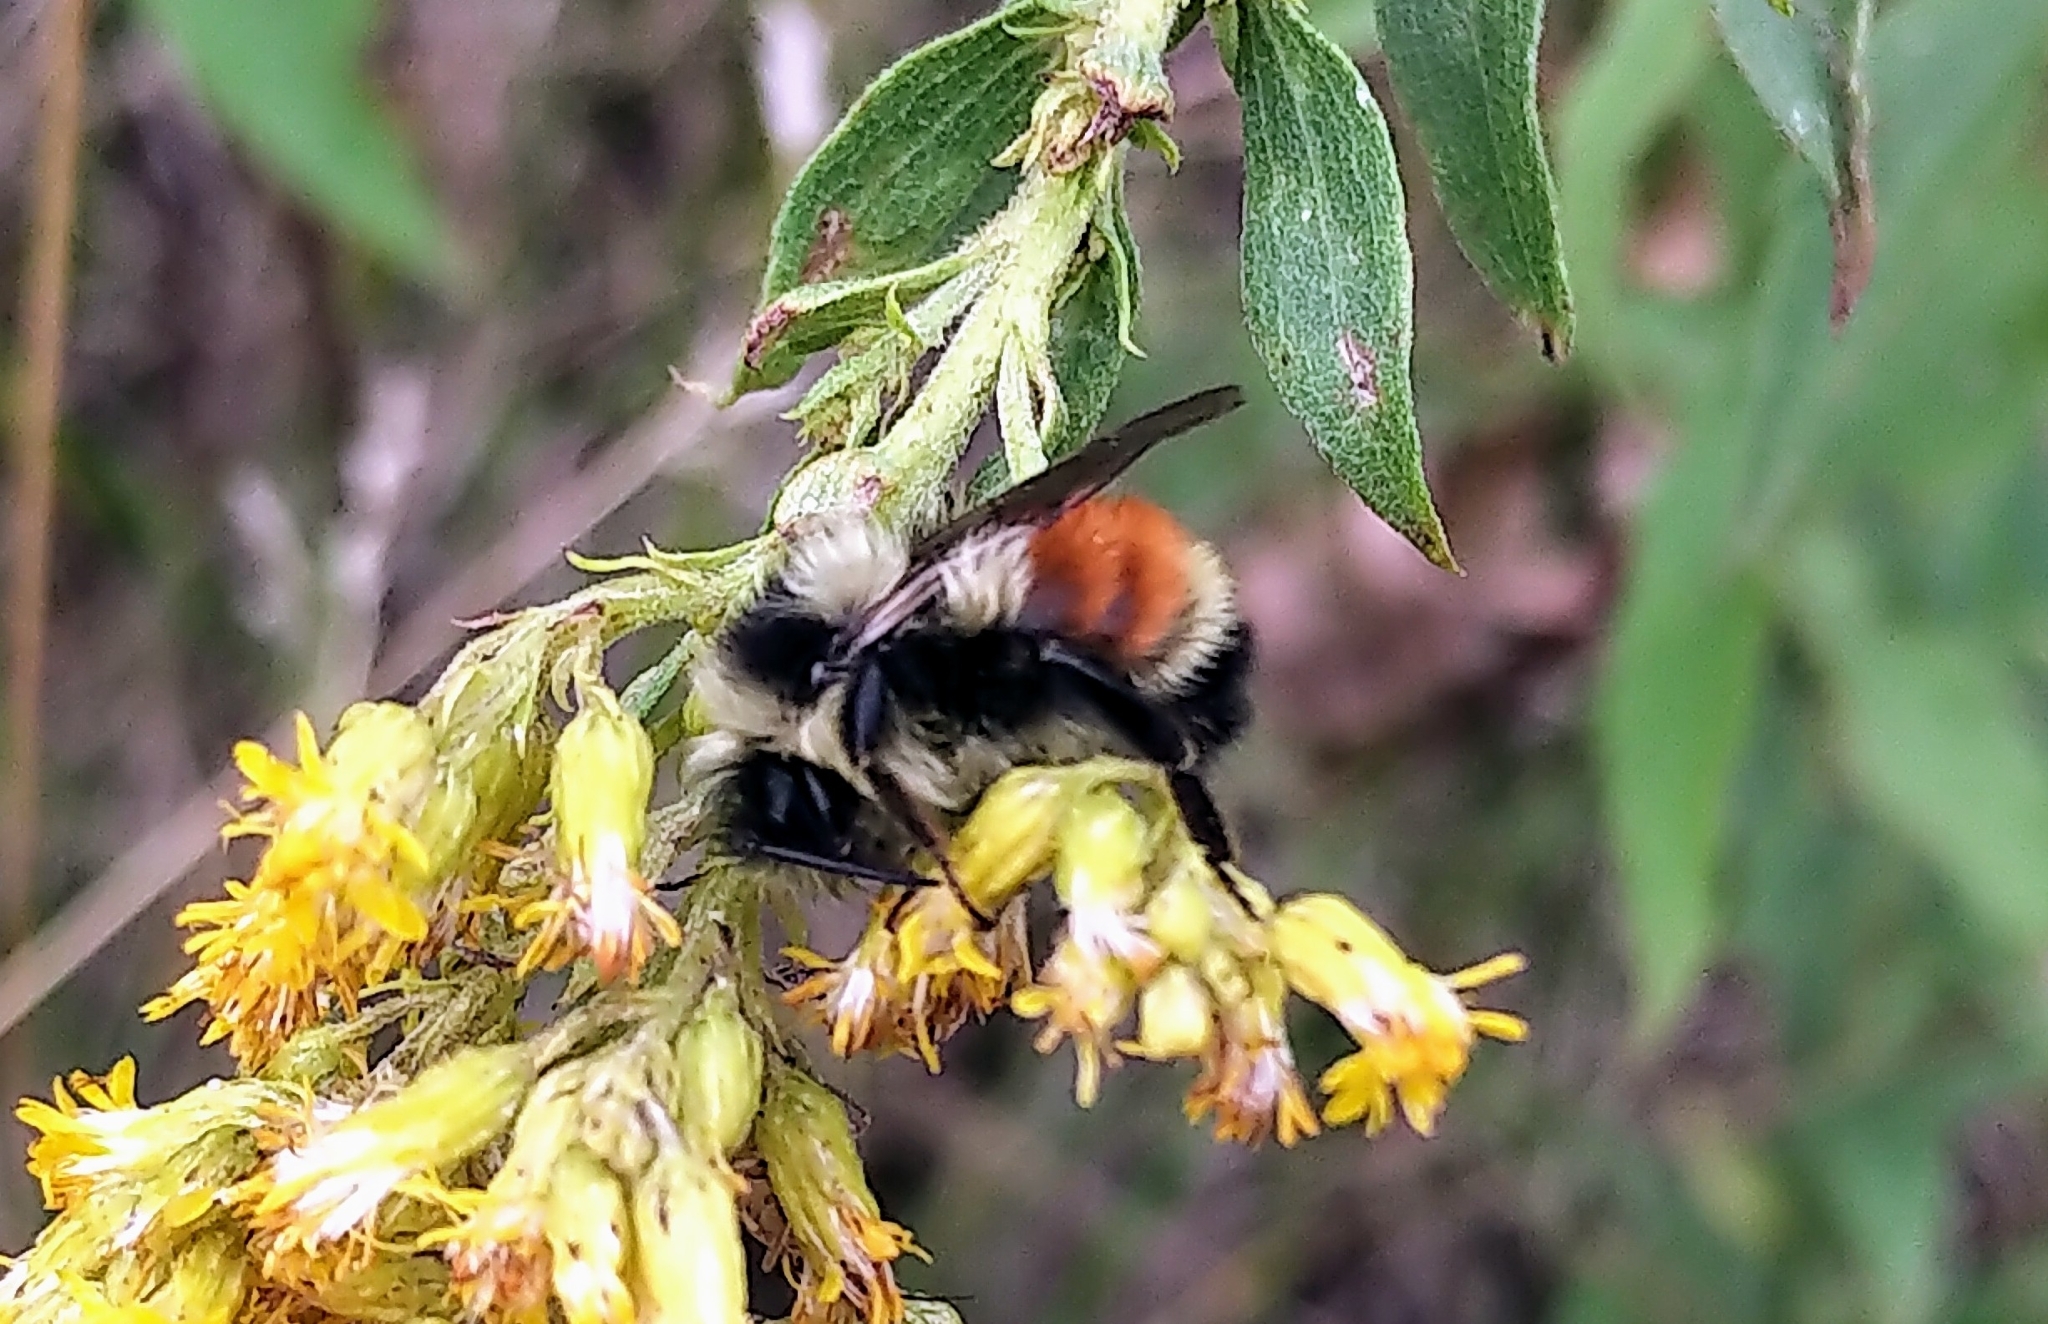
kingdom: Animalia
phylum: Arthropoda
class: Insecta
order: Hymenoptera
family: Apidae
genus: Bombus
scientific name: Bombus ternarius
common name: Tri-colored bumble bee
